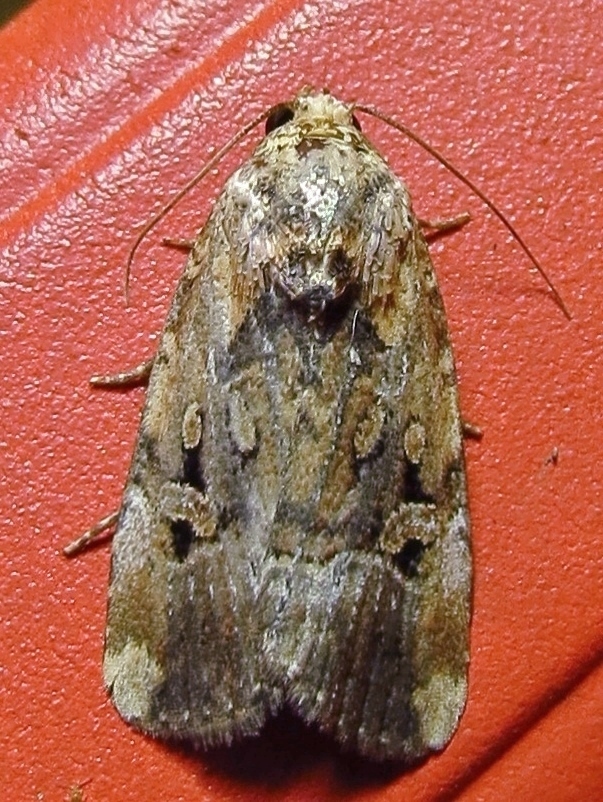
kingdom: Animalia
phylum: Arthropoda
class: Insecta
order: Lepidoptera
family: Noctuidae
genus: Elaphria
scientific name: Elaphria chalcedonia
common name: Chalcedony midget
